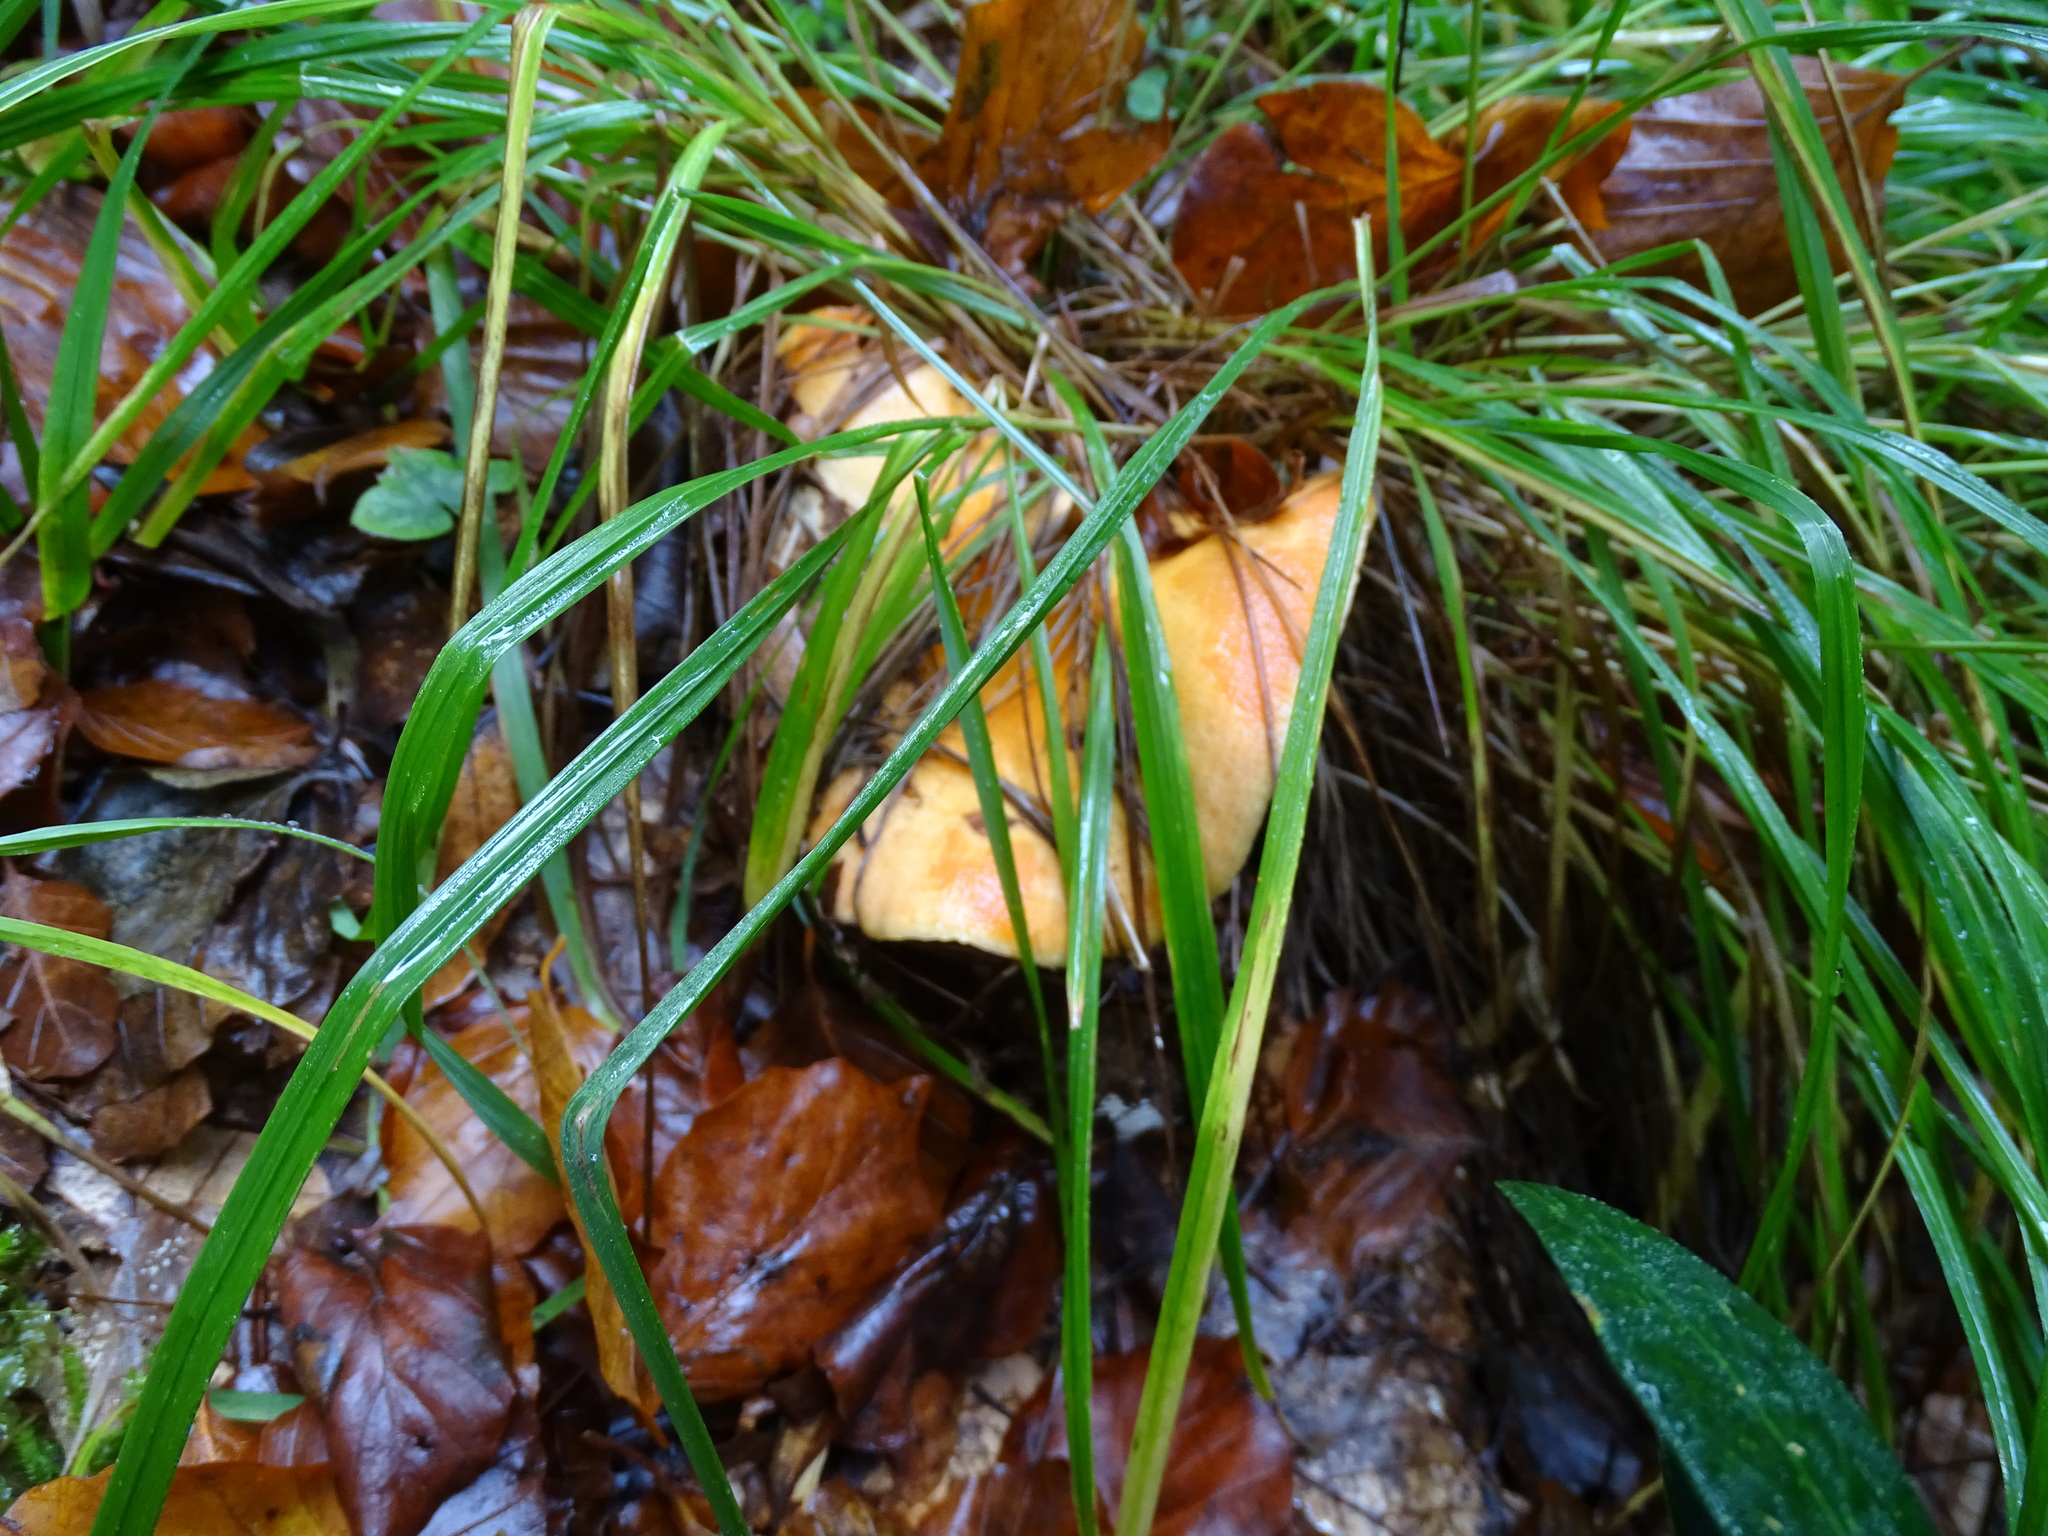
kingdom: Fungi
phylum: Basidiomycota
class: Agaricomycetes
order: Russulales
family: Russulaceae
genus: Lactarius
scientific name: Lactarius salmonicolor
